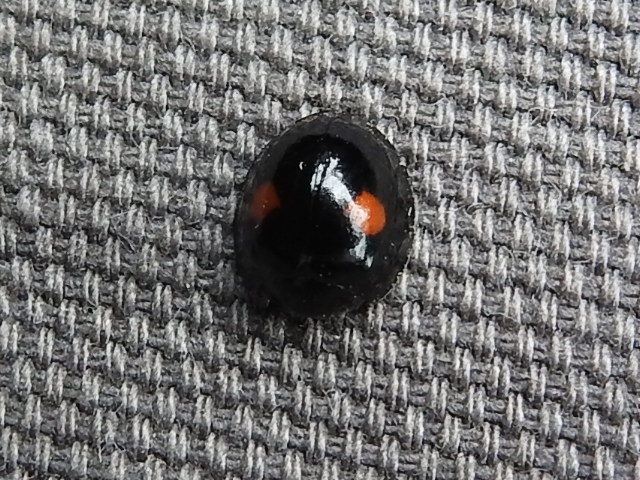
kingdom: Animalia
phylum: Arthropoda
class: Insecta
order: Coleoptera
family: Coccinellidae
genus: Chilocorus
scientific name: Chilocorus stigma
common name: Twicestabbed lady beetle
